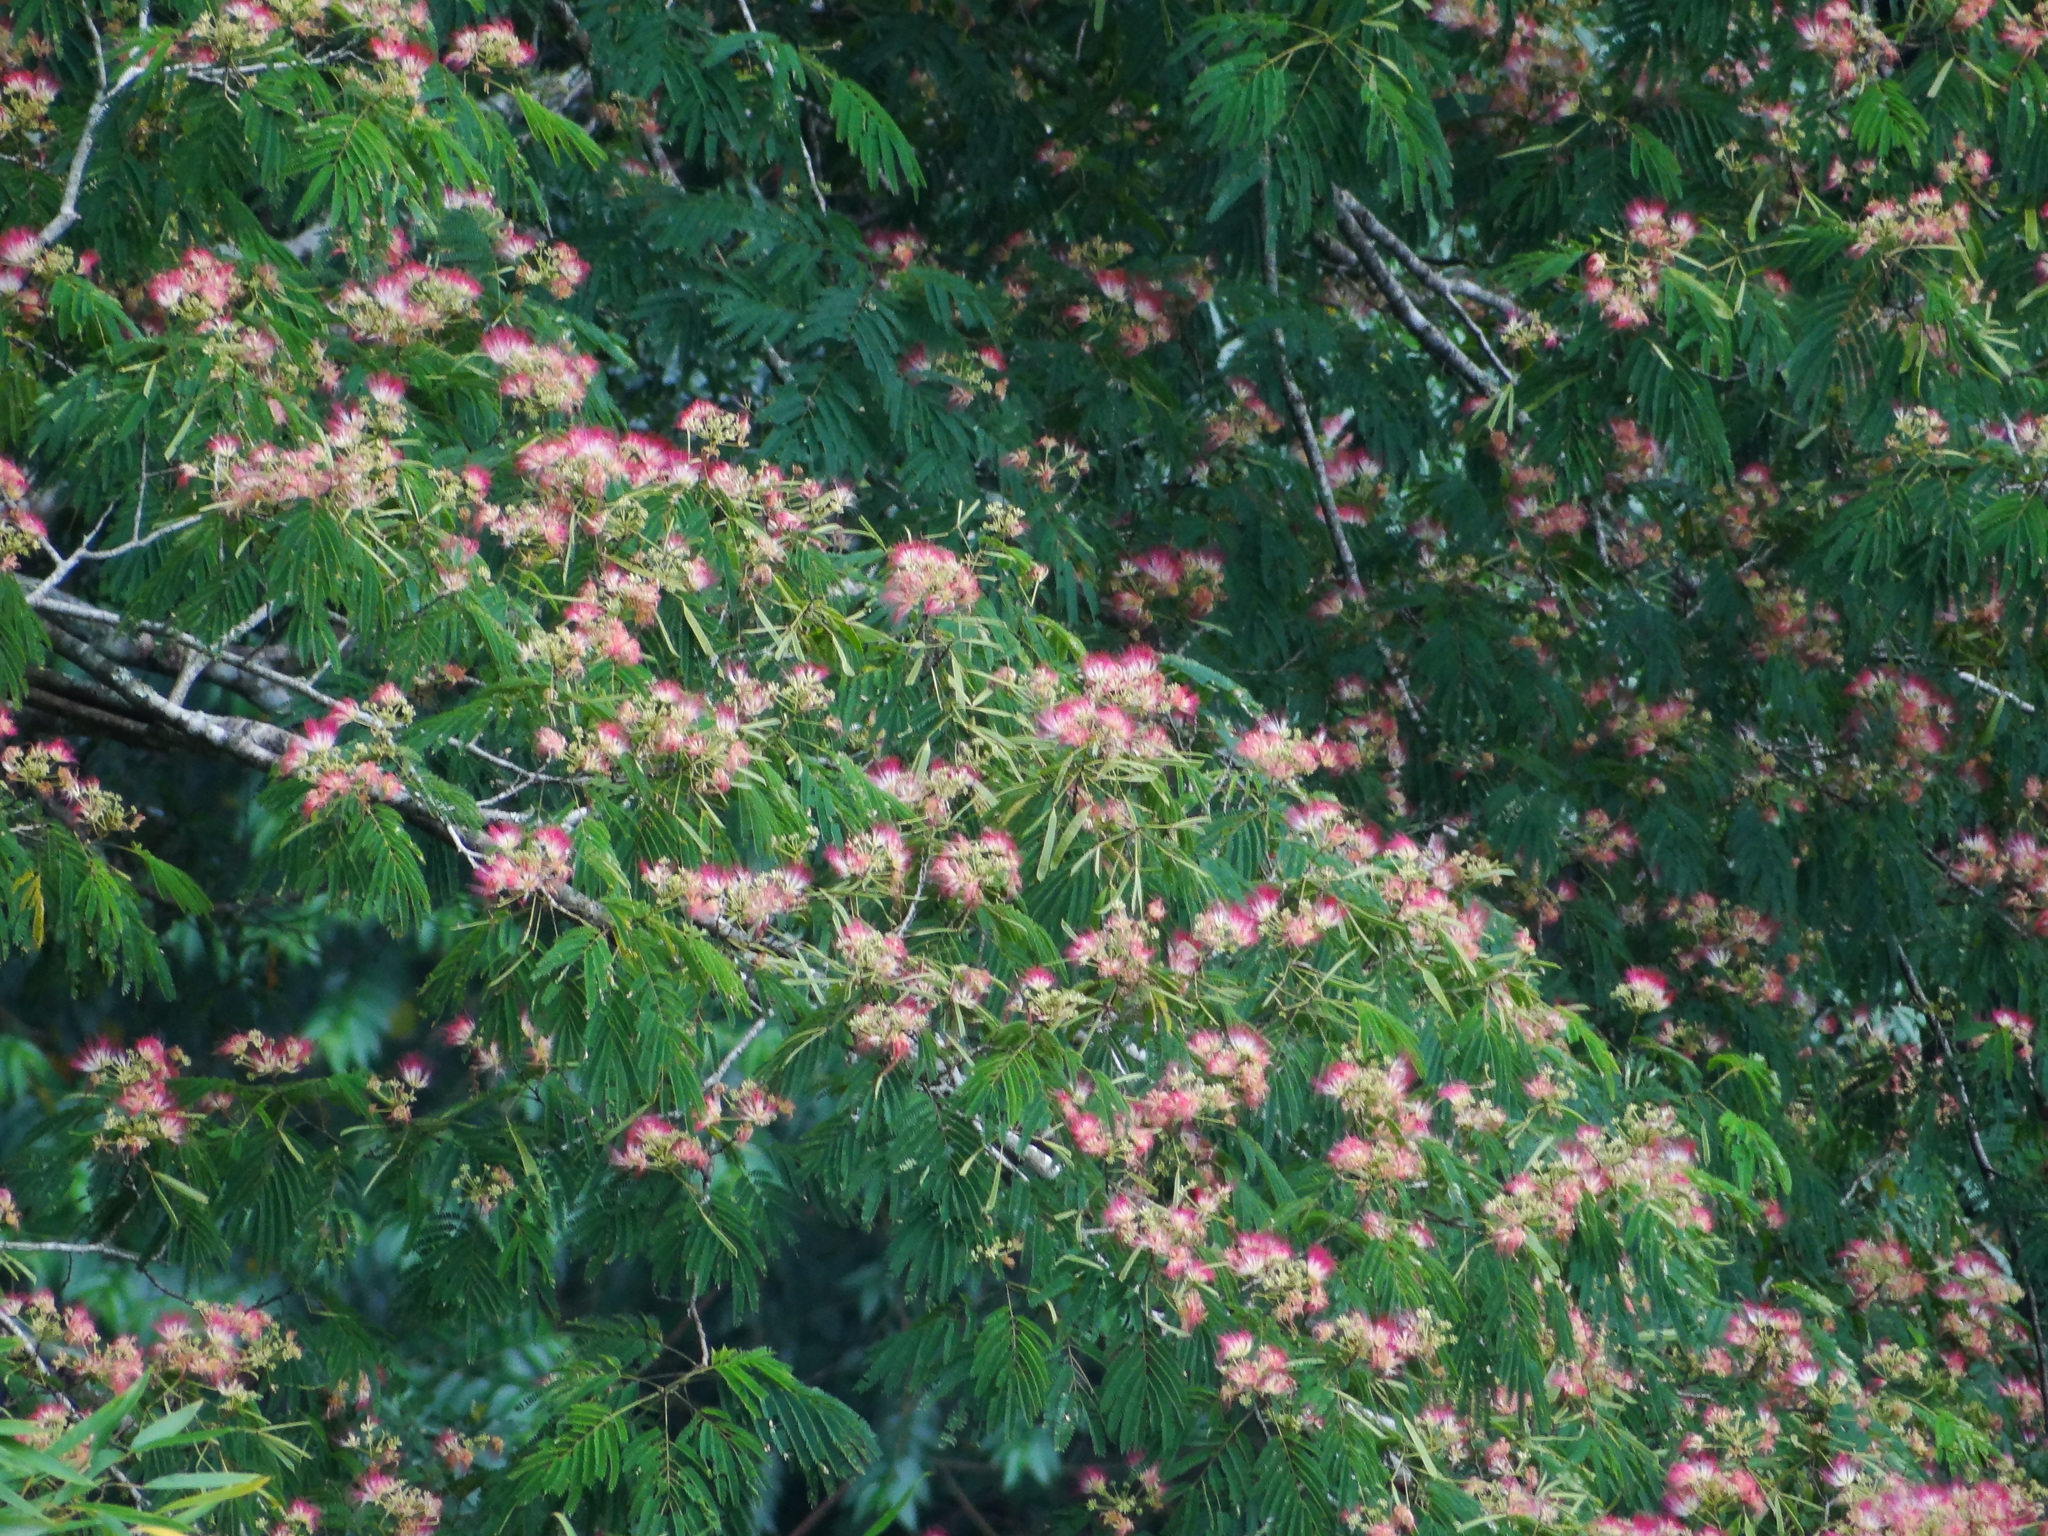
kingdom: Plantae
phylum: Tracheophyta
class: Magnoliopsida
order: Fabales
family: Fabaceae
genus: Albizia
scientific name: Albizia julibrissin
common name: Silktree
